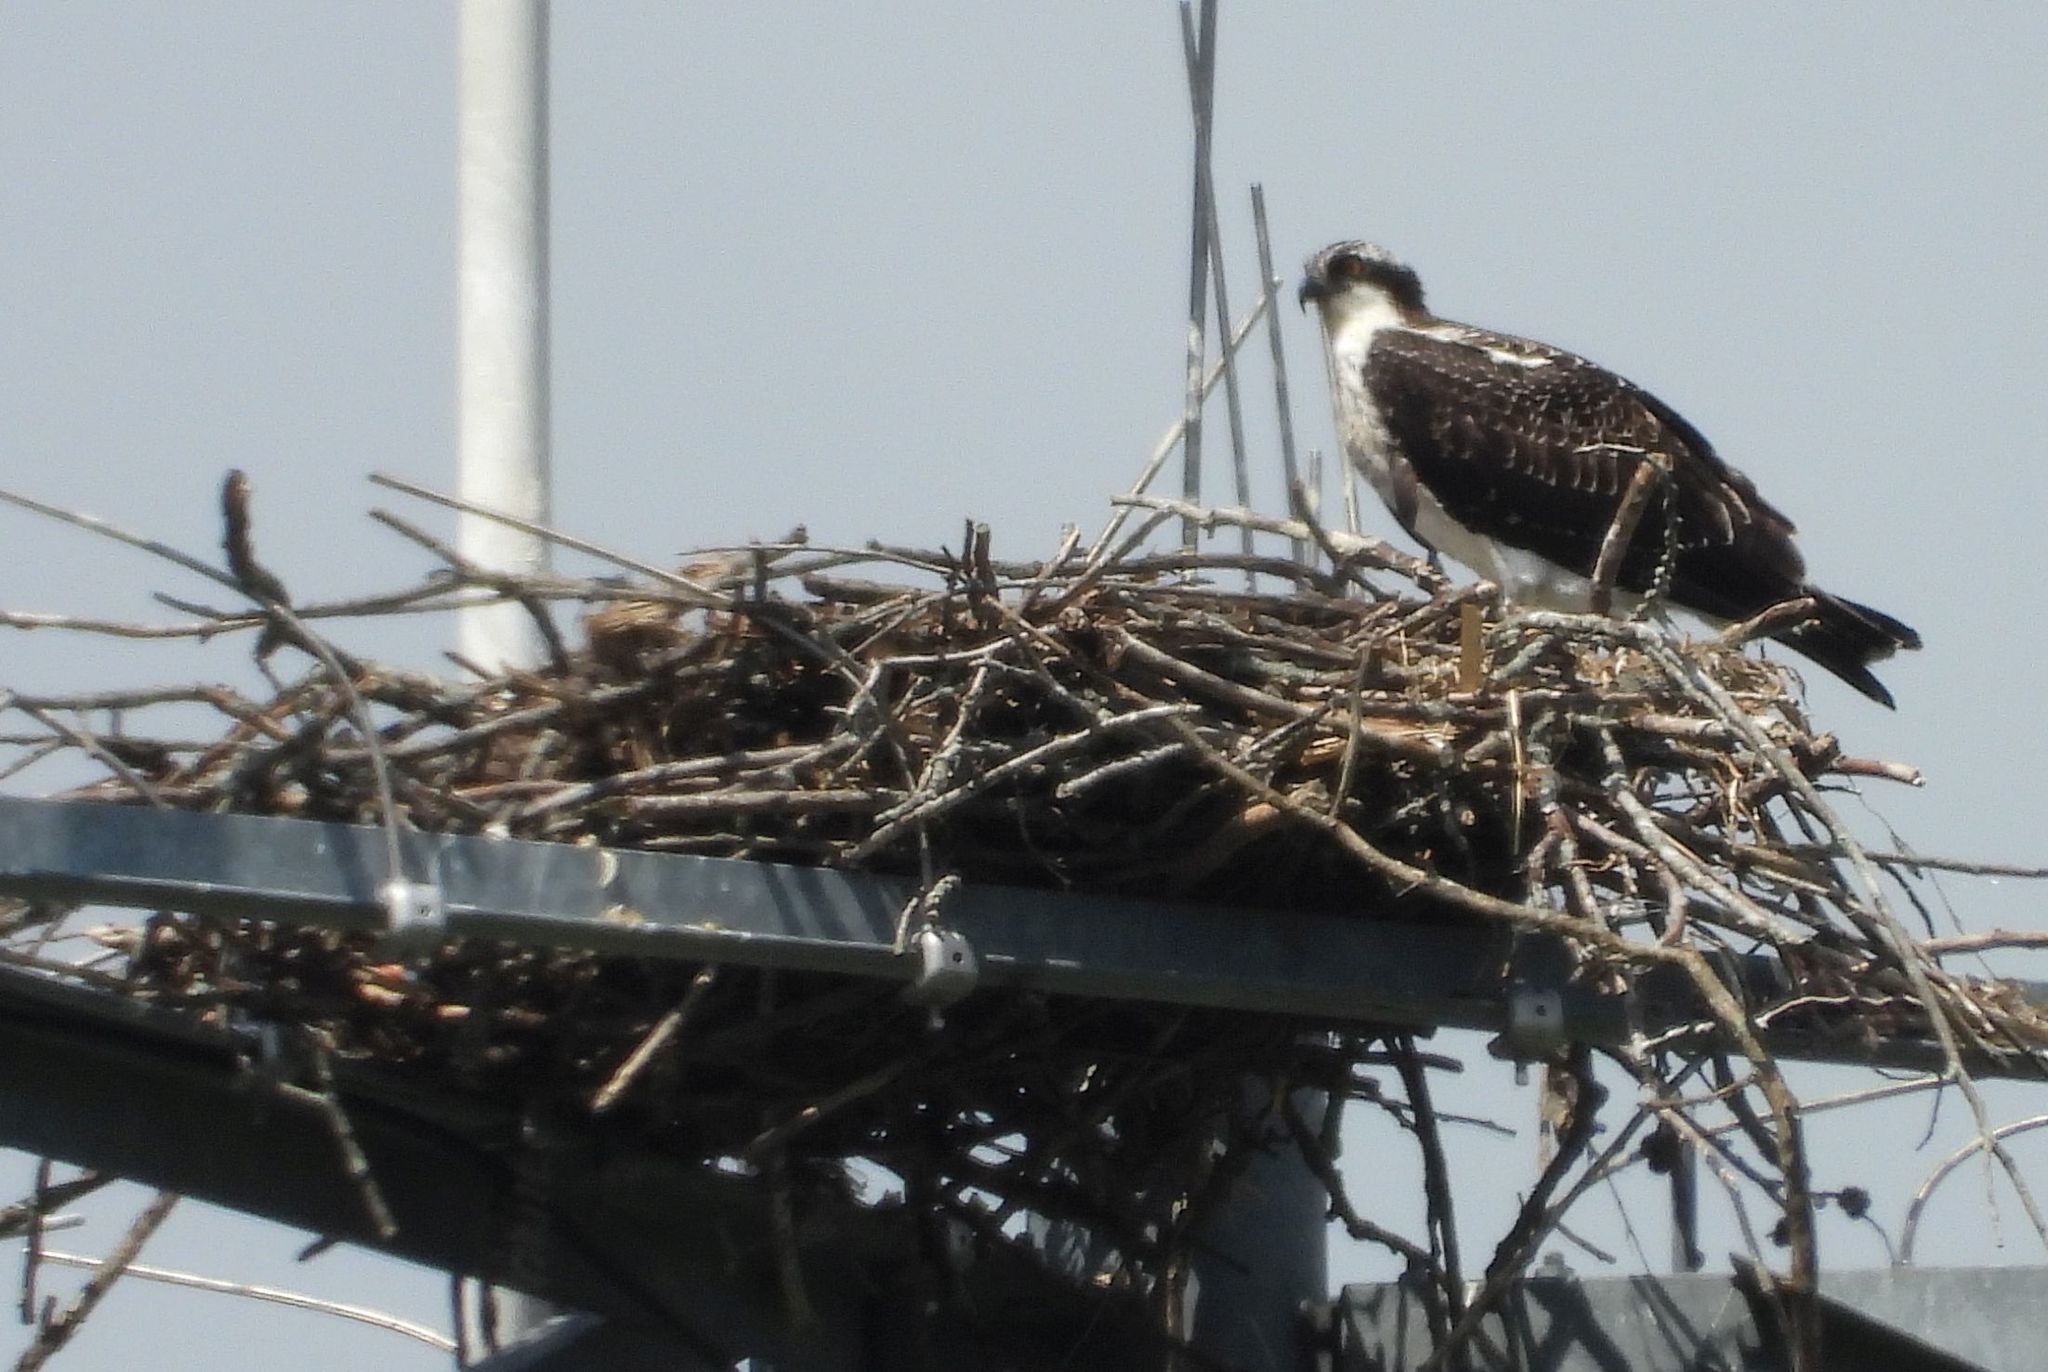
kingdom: Animalia
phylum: Chordata
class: Aves
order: Accipitriformes
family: Pandionidae
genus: Pandion
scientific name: Pandion haliaetus
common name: Osprey
